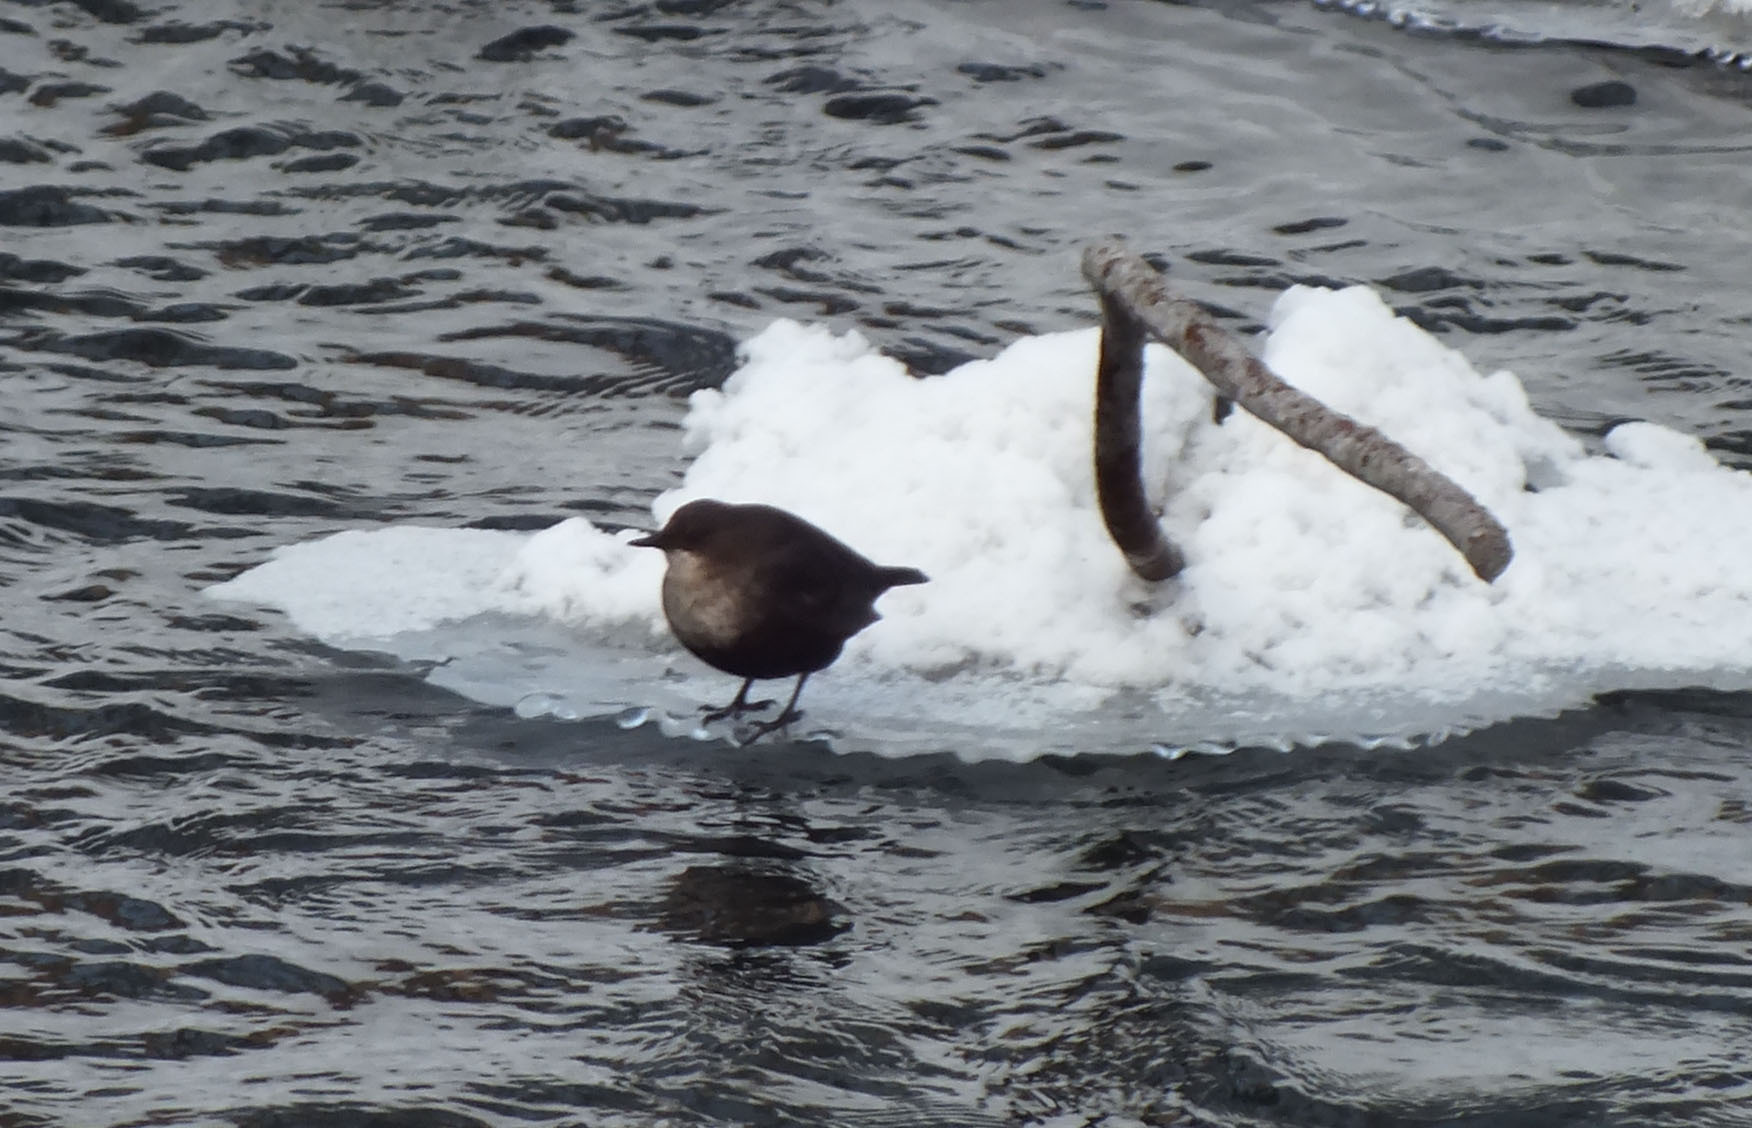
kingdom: Animalia
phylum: Chordata
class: Aves
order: Passeriformes
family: Cinclidae
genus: Cinclus
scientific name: Cinclus cinclus
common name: White-throated dipper
